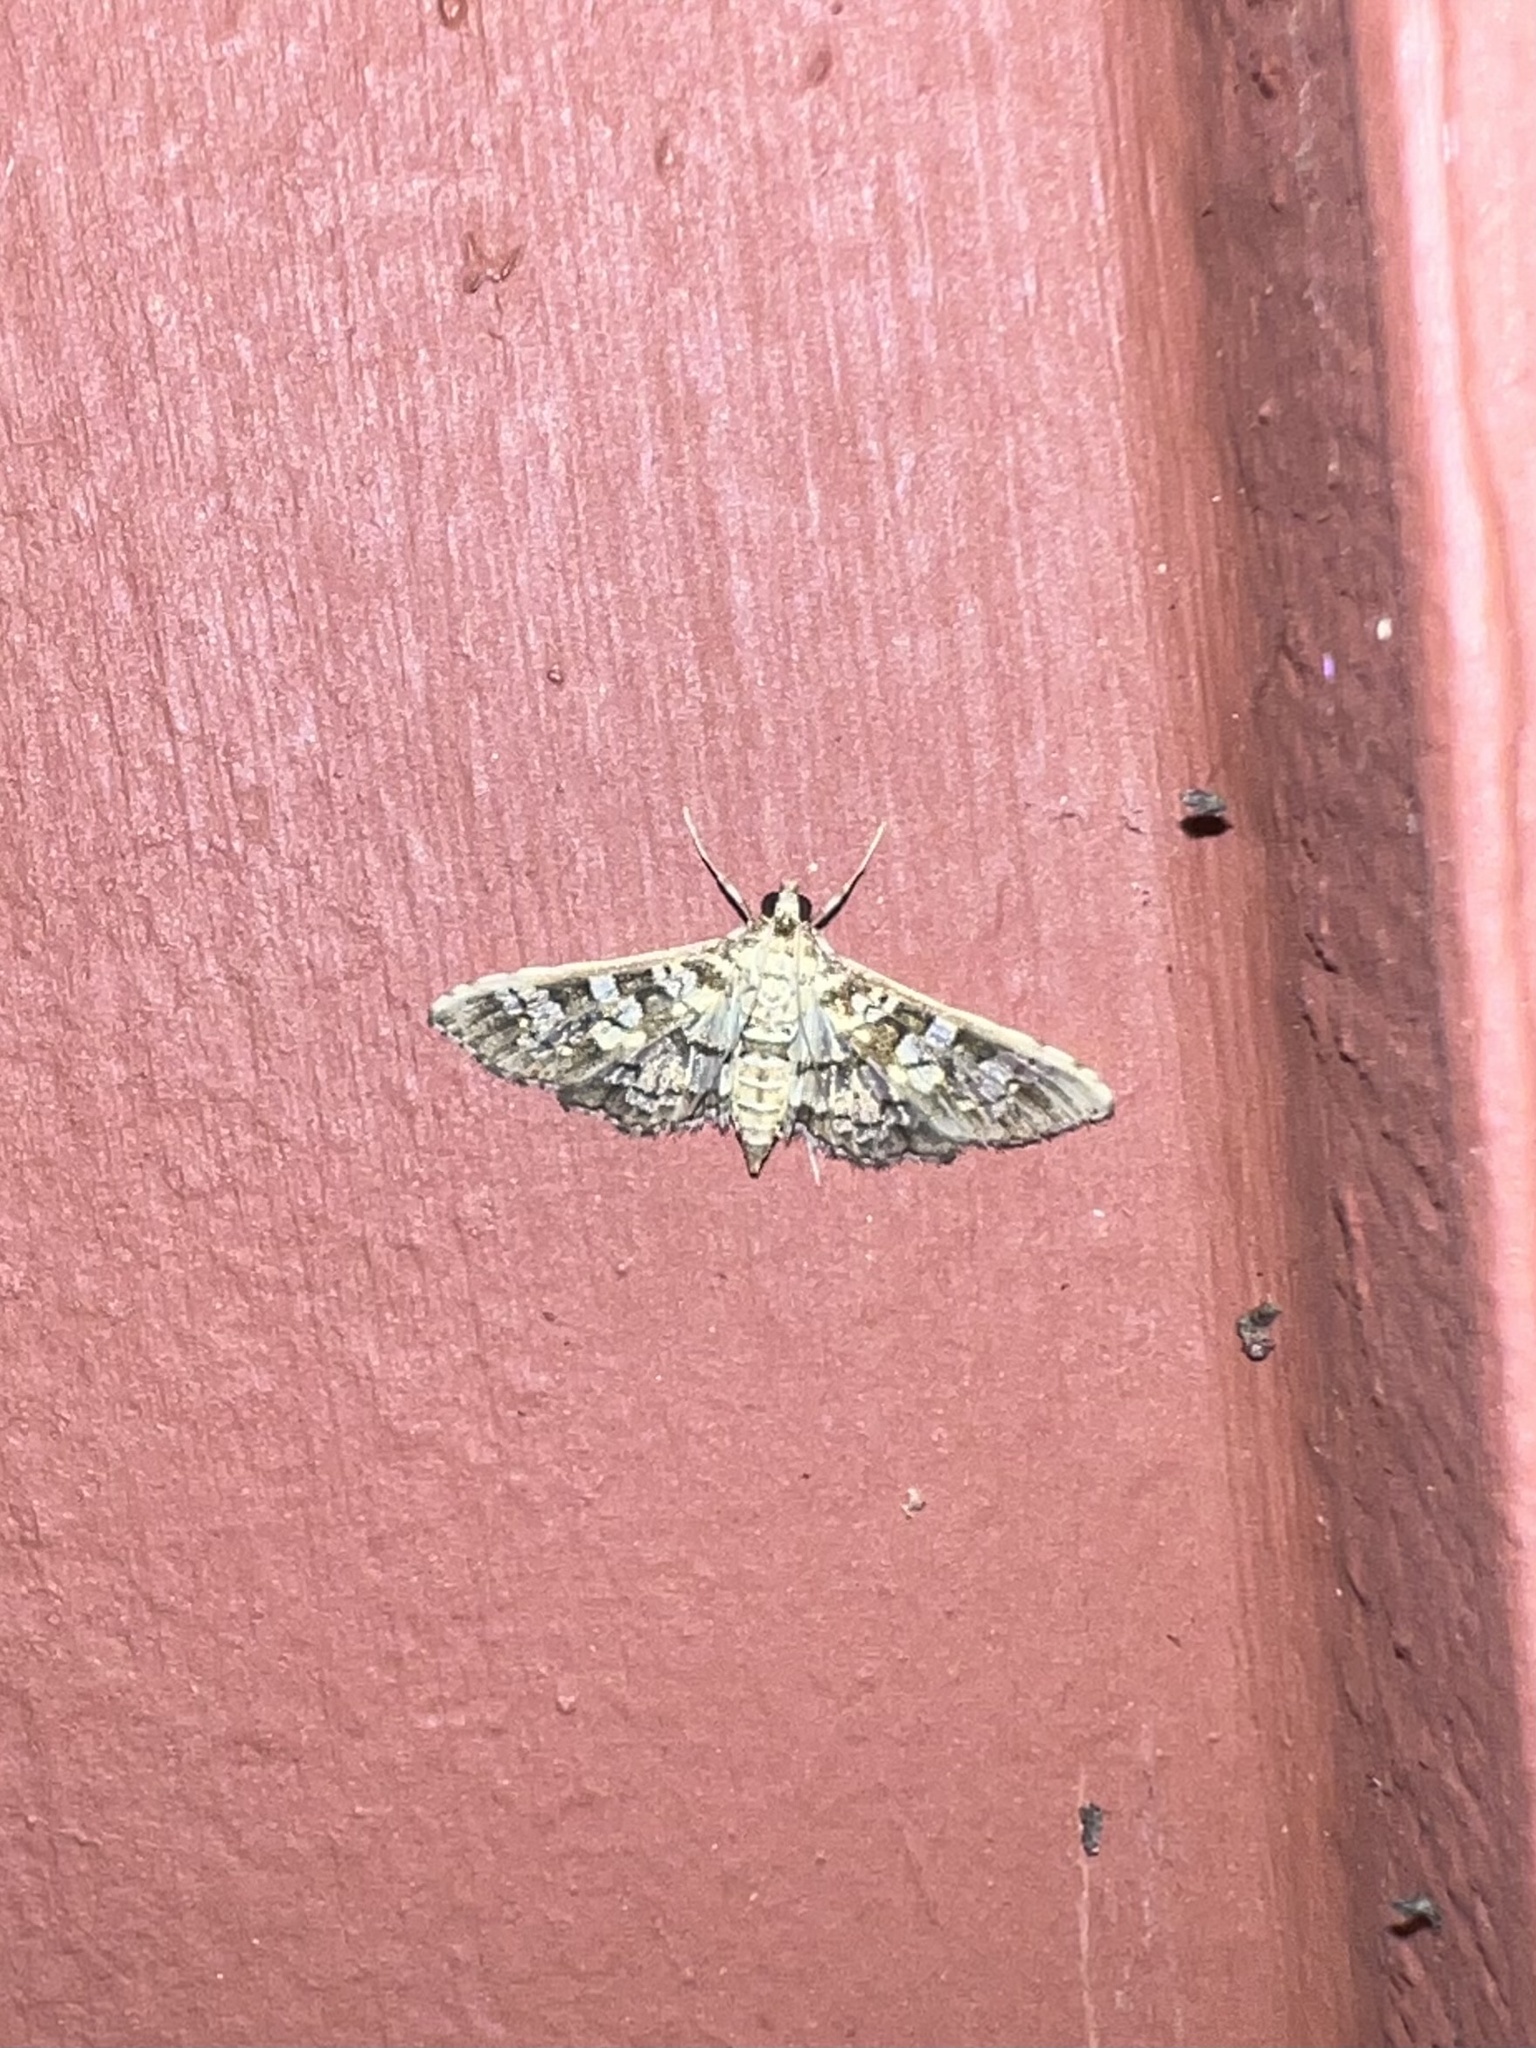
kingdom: Animalia
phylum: Arthropoda
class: Insecta
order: Lepidoptera
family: Crambidae
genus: Samea
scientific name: Samea ecclesialis
